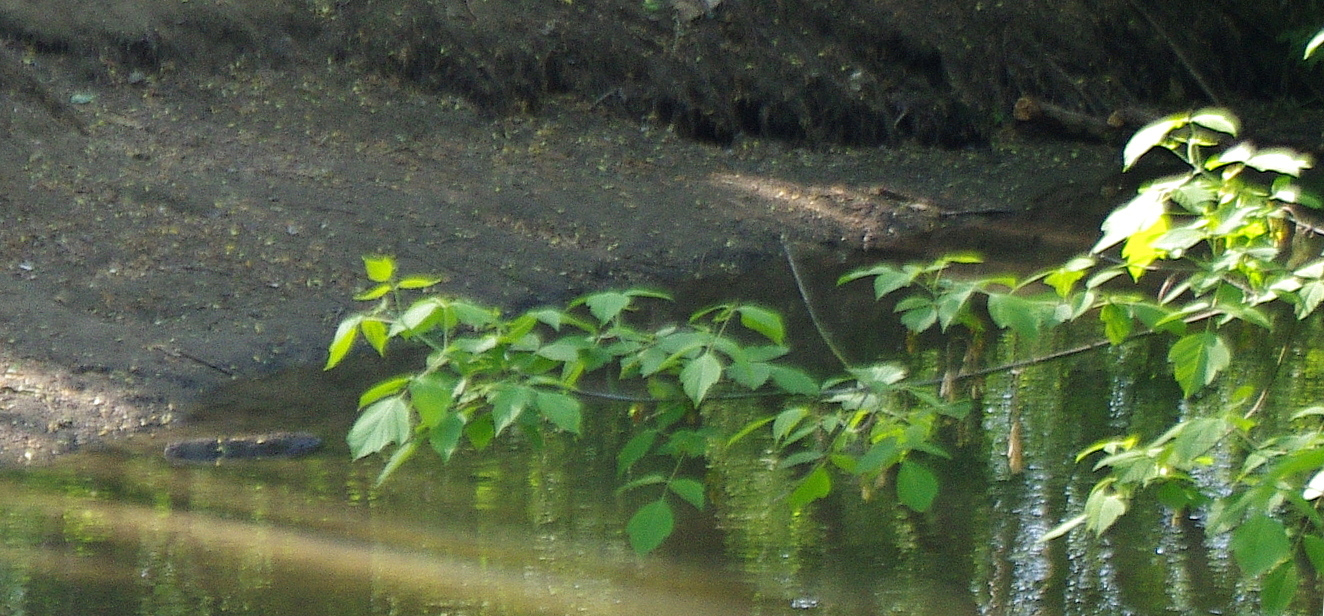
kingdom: Plantae
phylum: Tracheophyta
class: Magnoliopsida
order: Sapindales
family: Sapindaceae
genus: Acer
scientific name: Acer negundo
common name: Ashleaf maple
